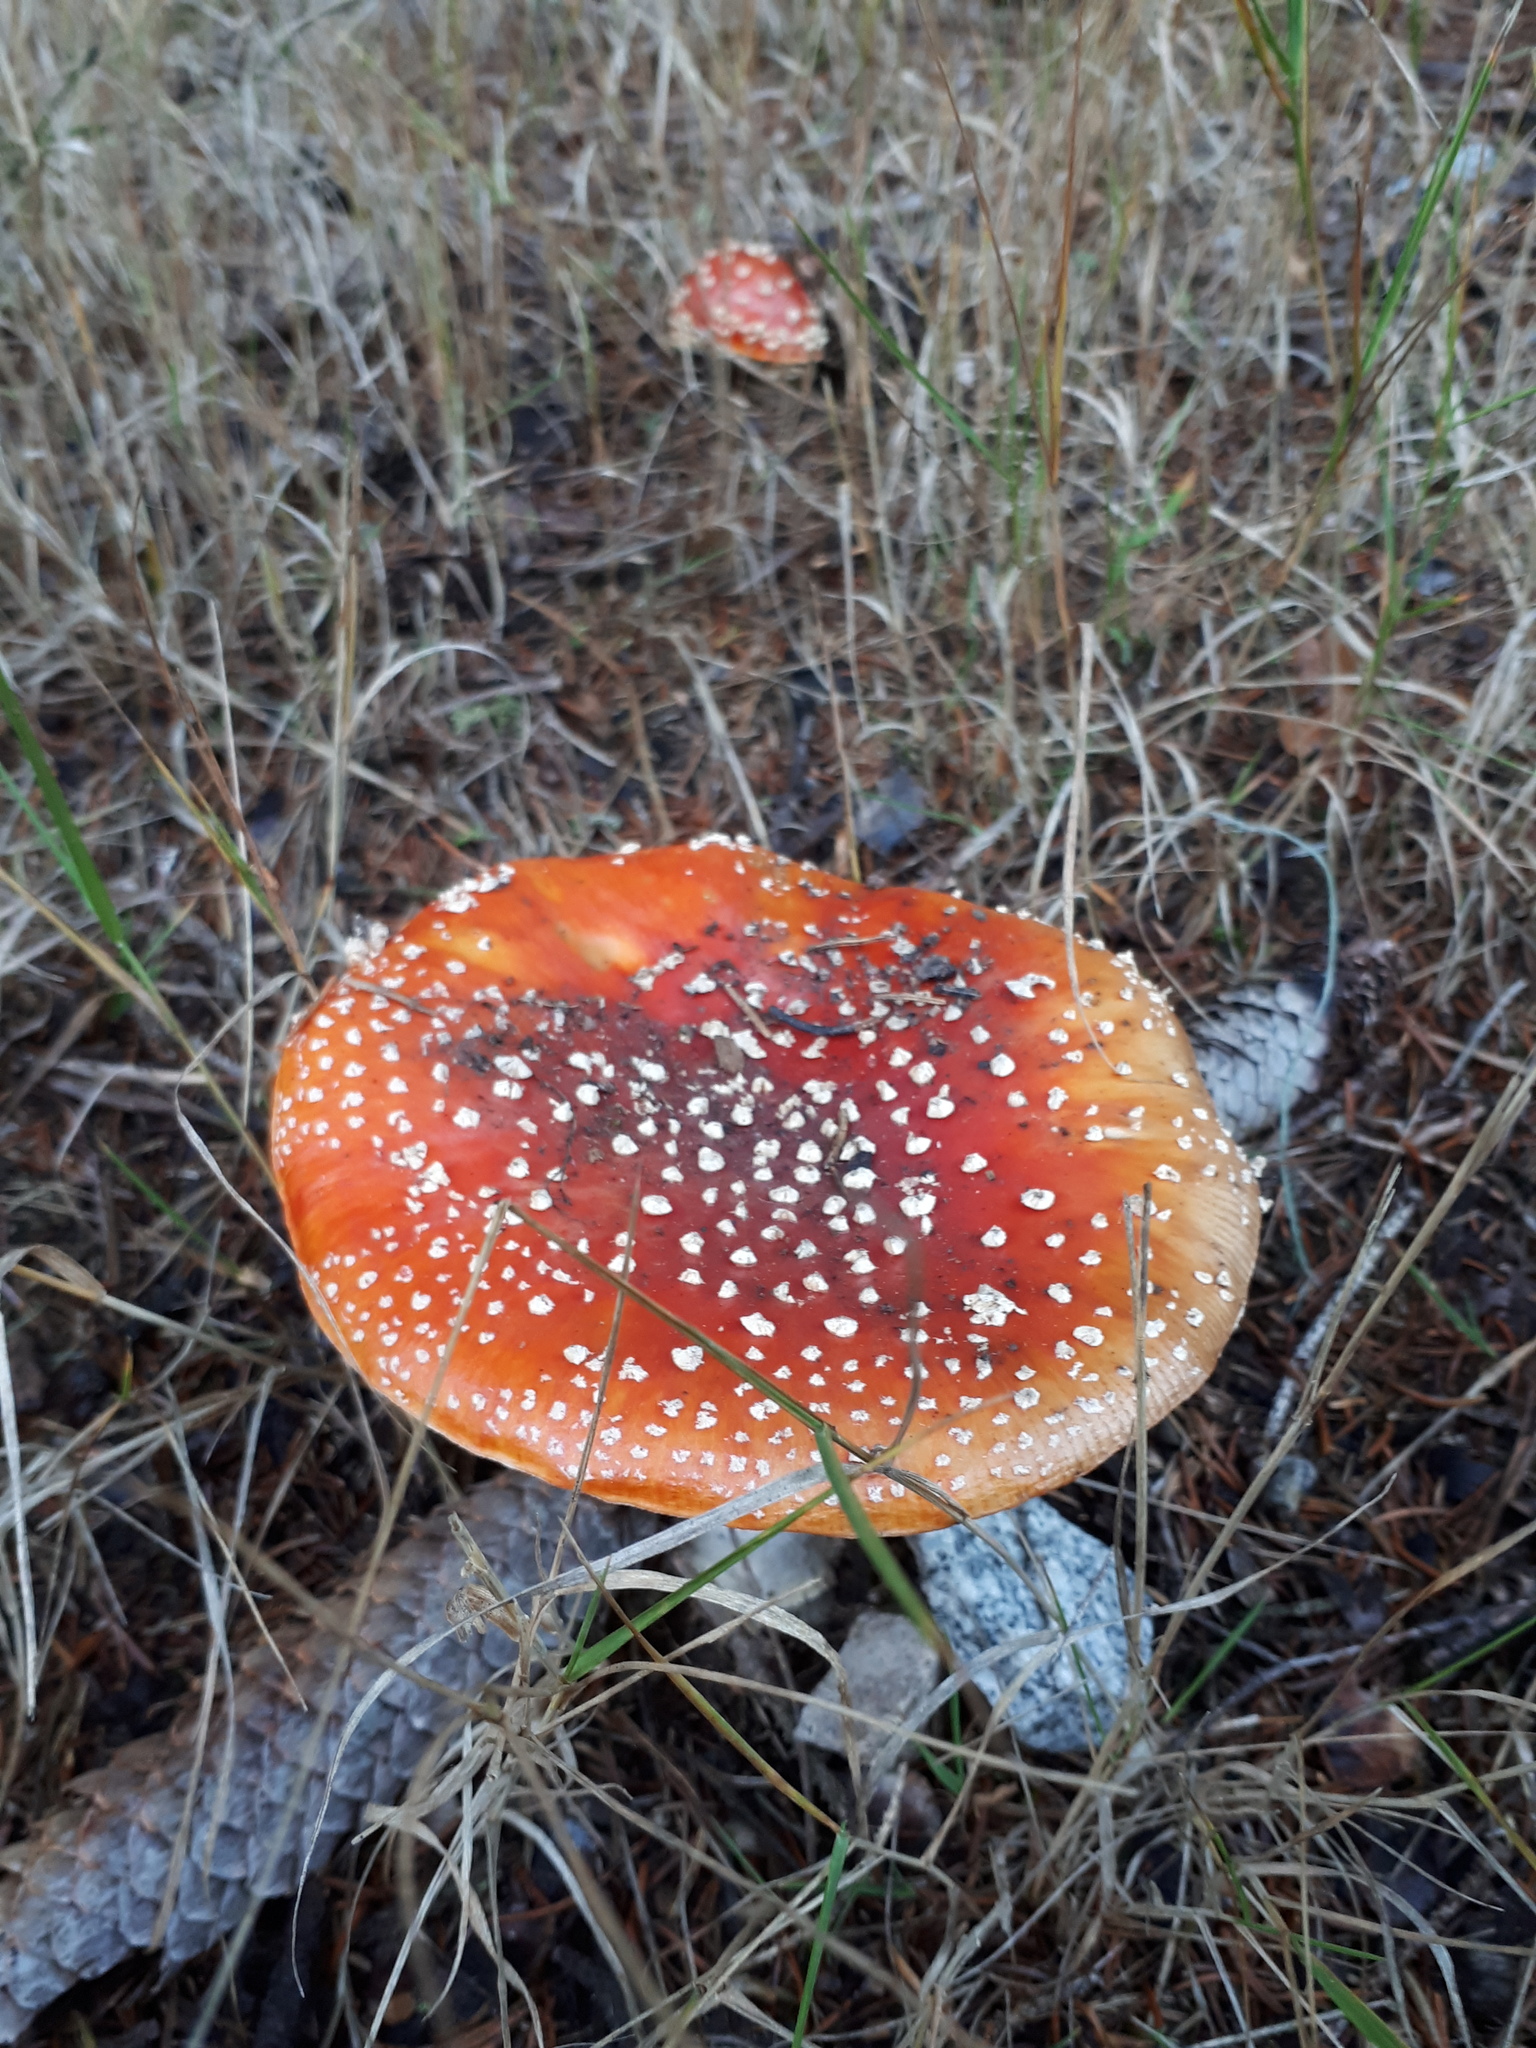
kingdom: Fungi
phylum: Basidiomycota
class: Agaricomycetes
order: Agaricales
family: Amanitaceae
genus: Amanita
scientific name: Amanita muscaria
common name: Fly agaric
